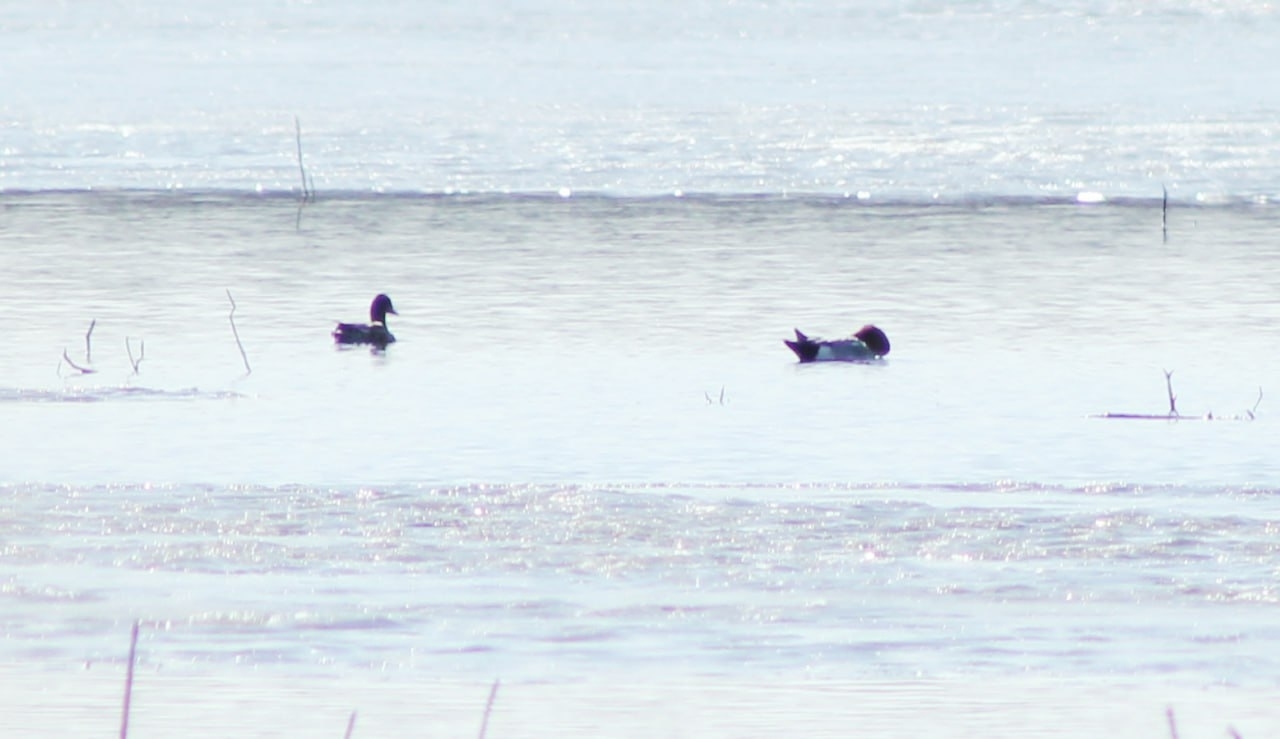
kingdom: Animalia
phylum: Chordata
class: Aves
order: Anseriformes
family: Anatidae
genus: Mareca
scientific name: Mareca penelope
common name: Eurasian wigeon
